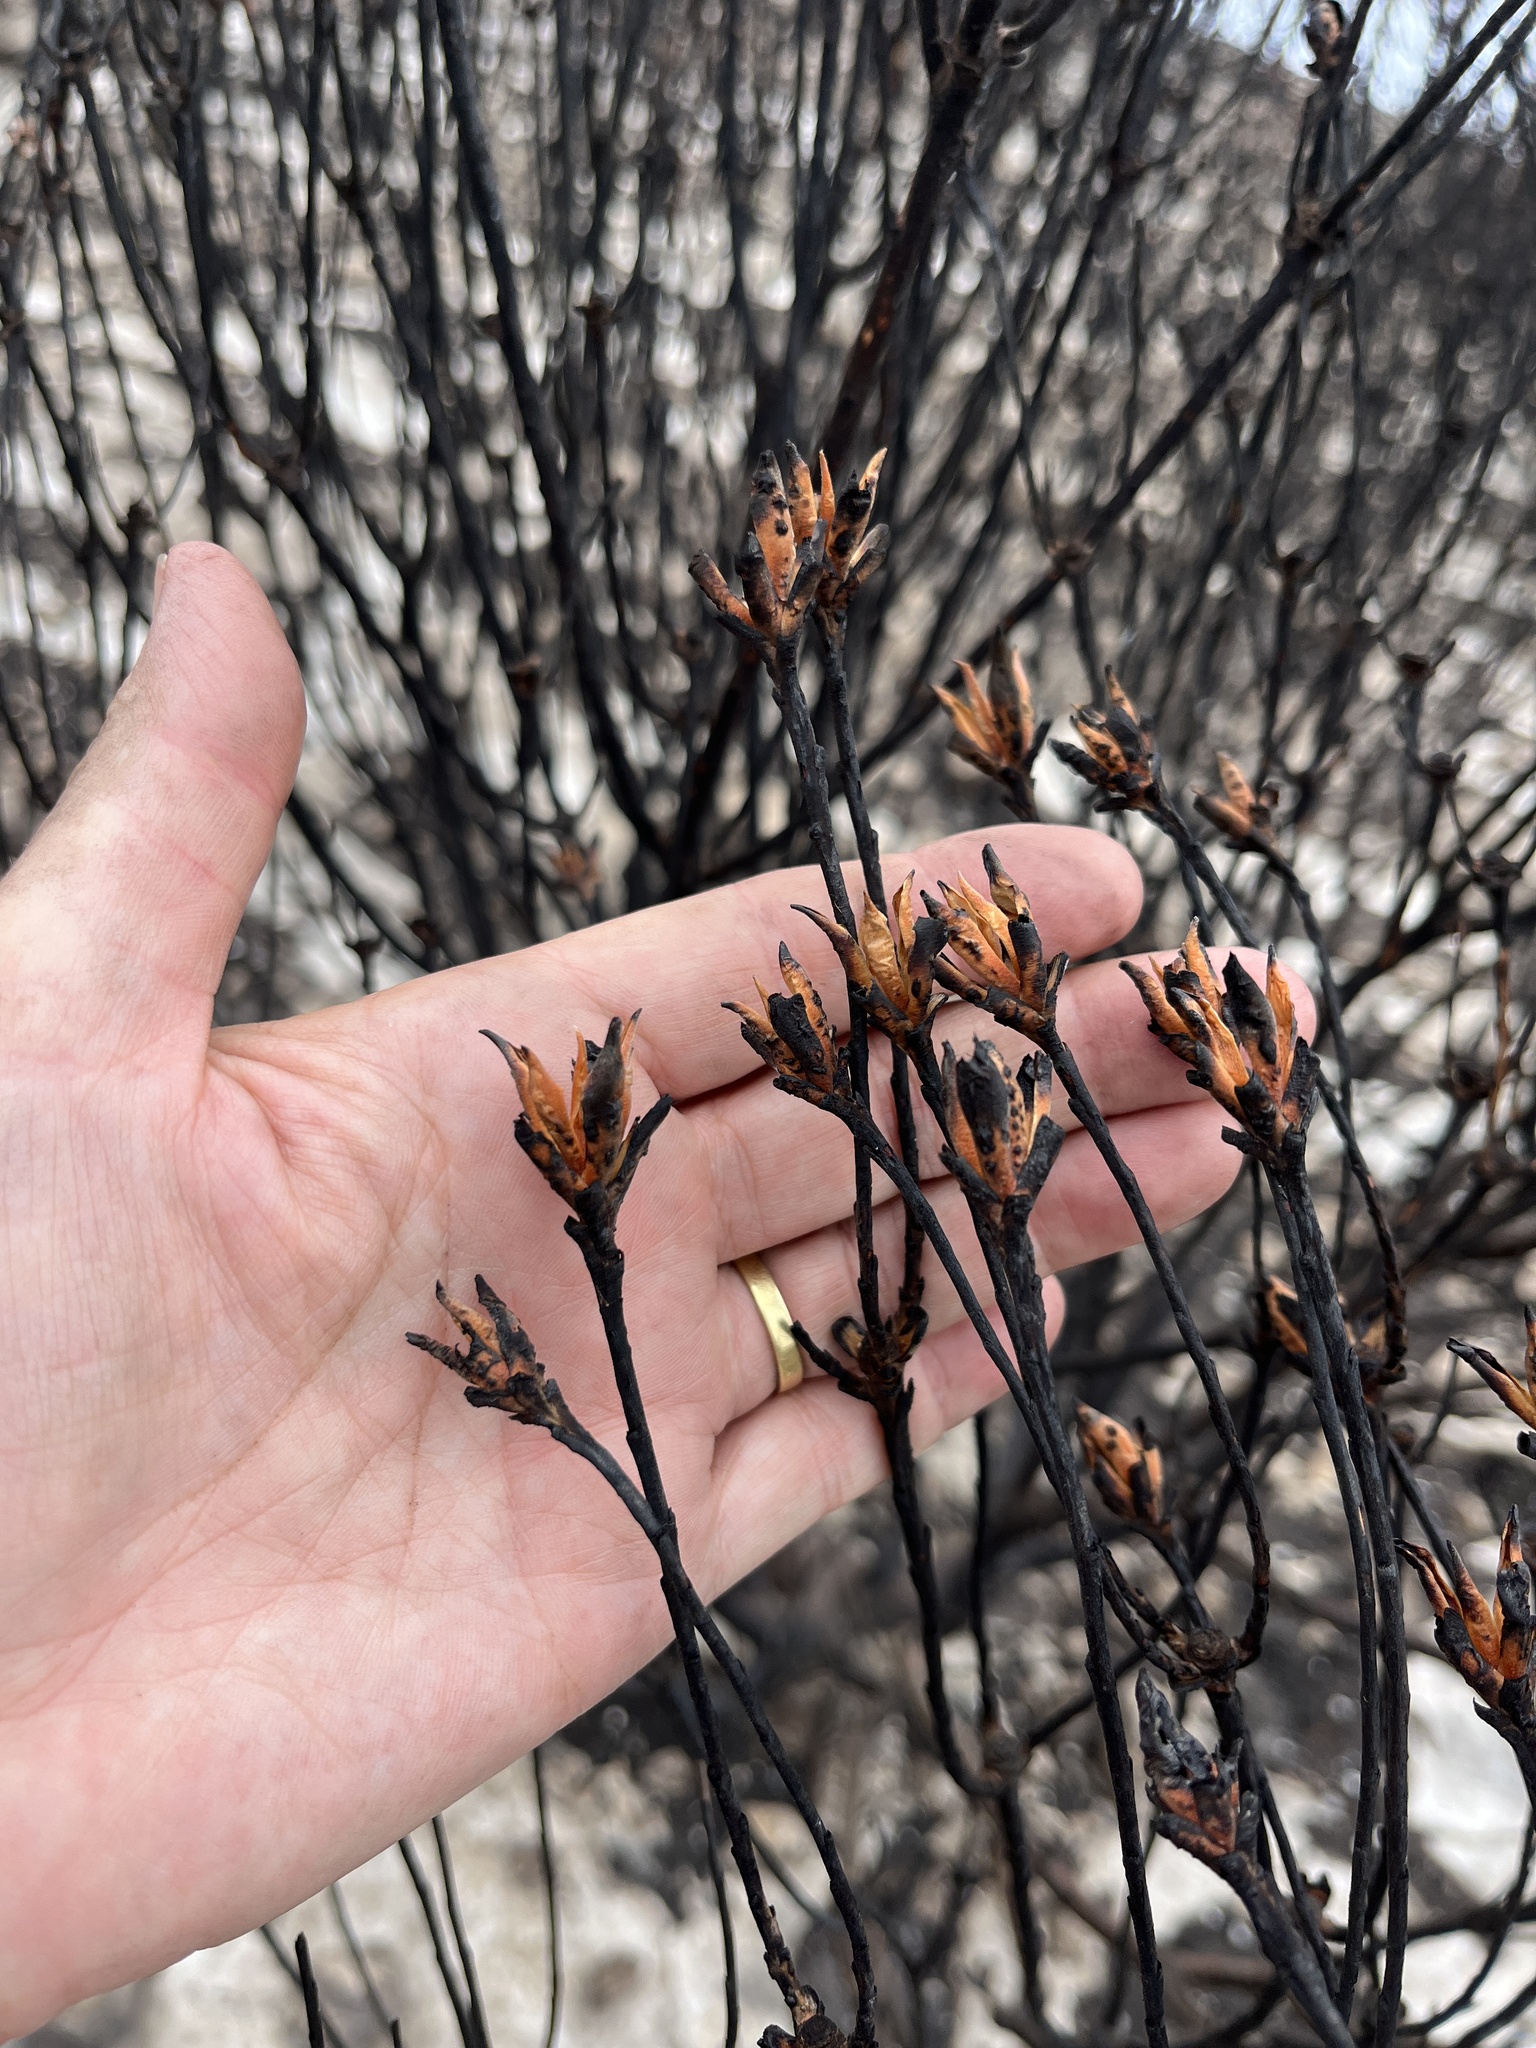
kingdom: Plantae
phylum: Tracheophyta
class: Magnoliopsida
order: Proteales
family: Proteaceae
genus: Leucadendron
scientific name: Leucadendron meridianum
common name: Limestone conebush
